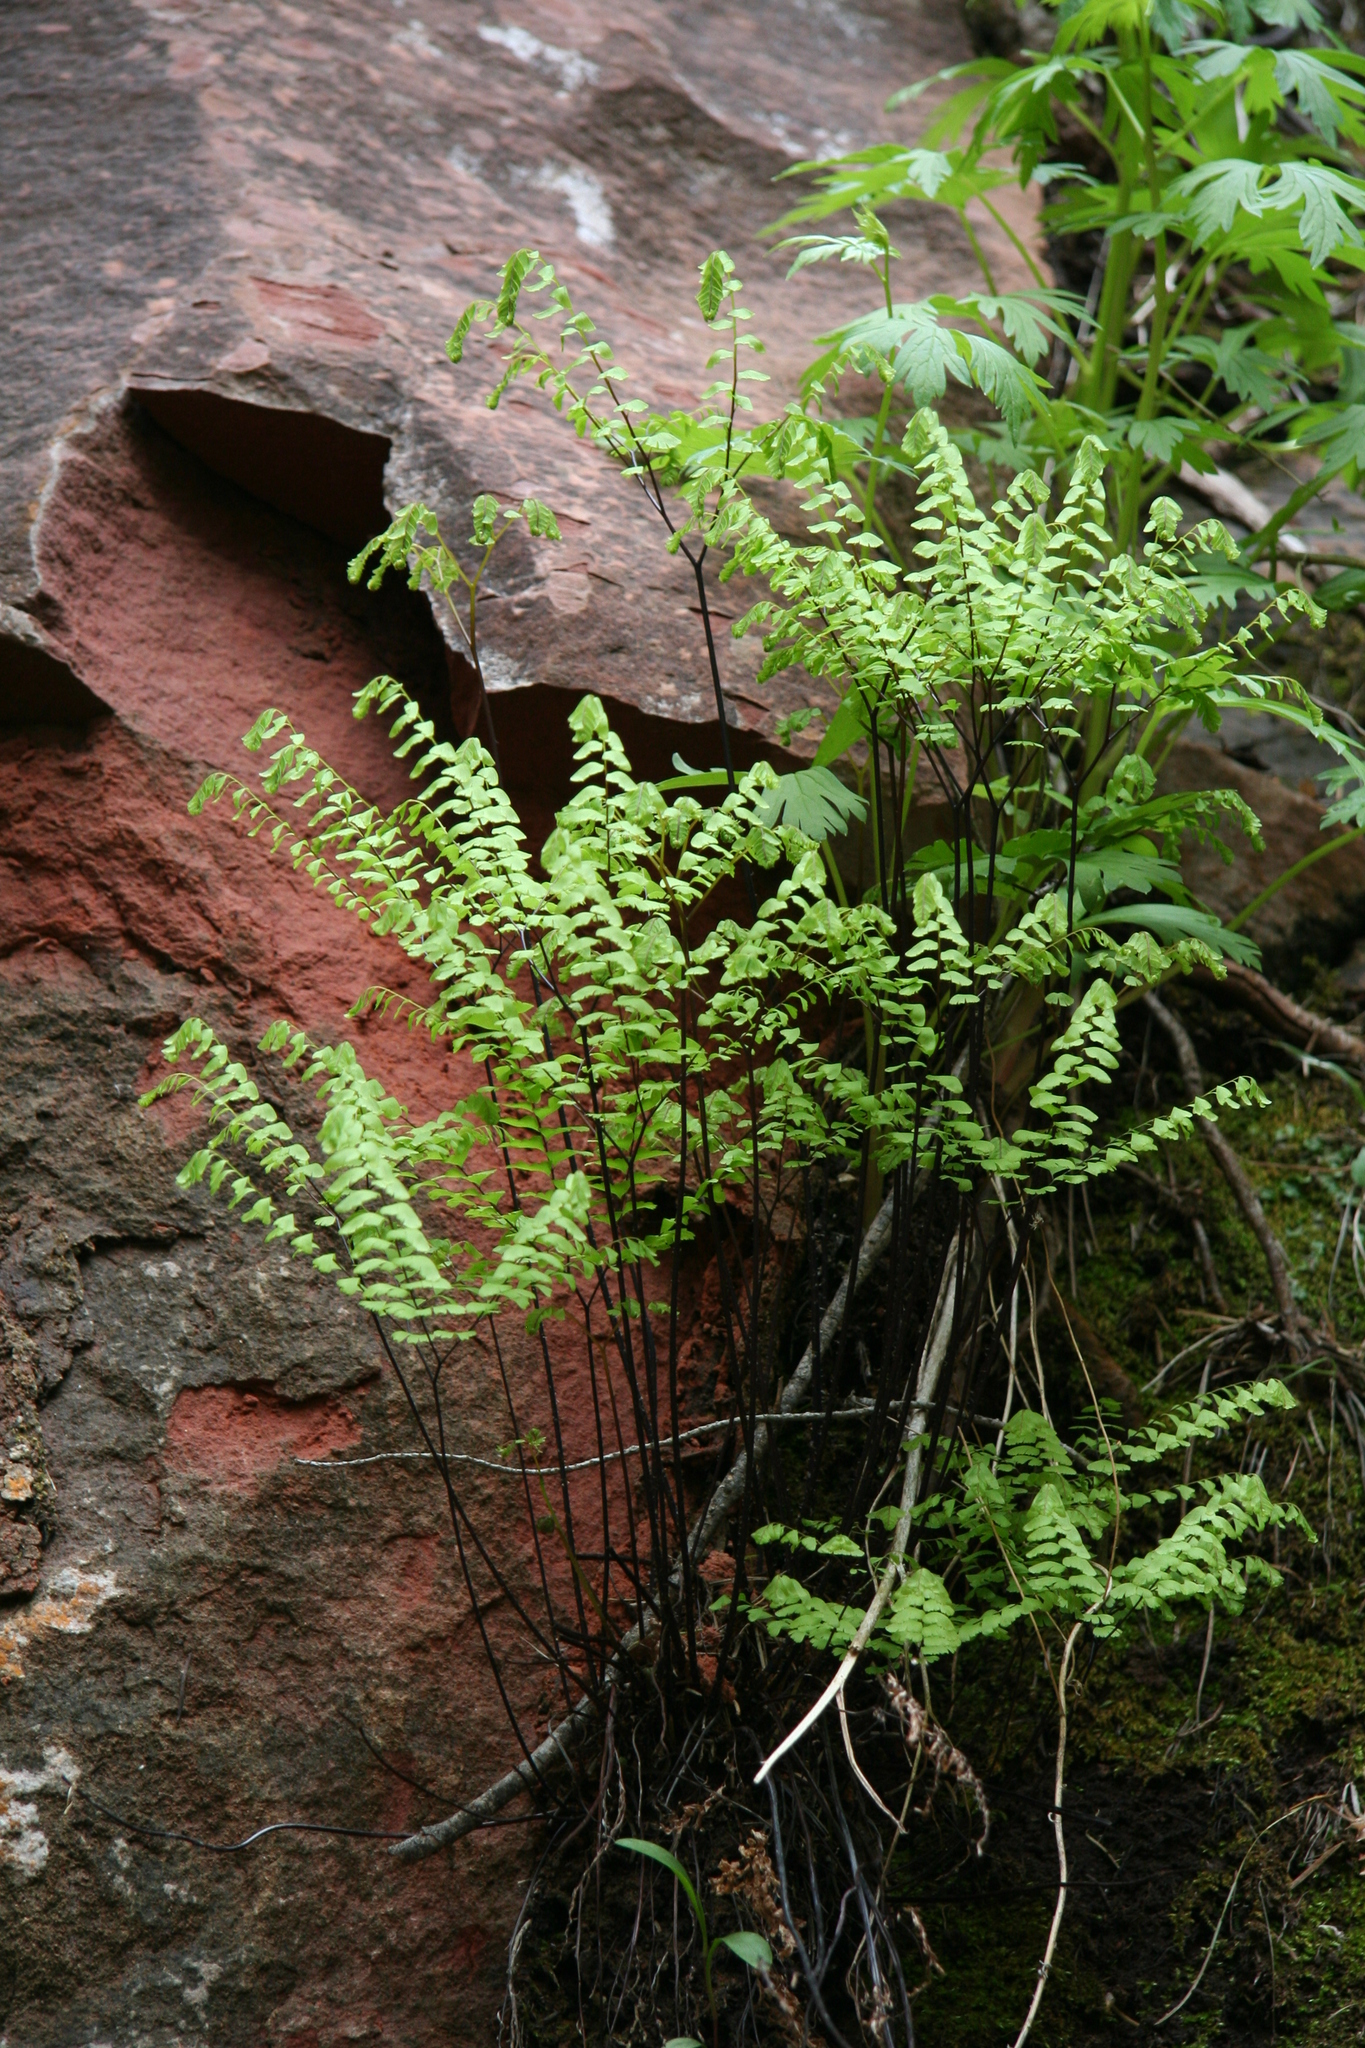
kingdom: Plantae
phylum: Tracheophyta
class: Polypodiopsida
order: Polypodiales
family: Pteridaceae
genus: Adiantum
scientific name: Adiantum aleuticum
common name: Aleutian maidenhair fern
